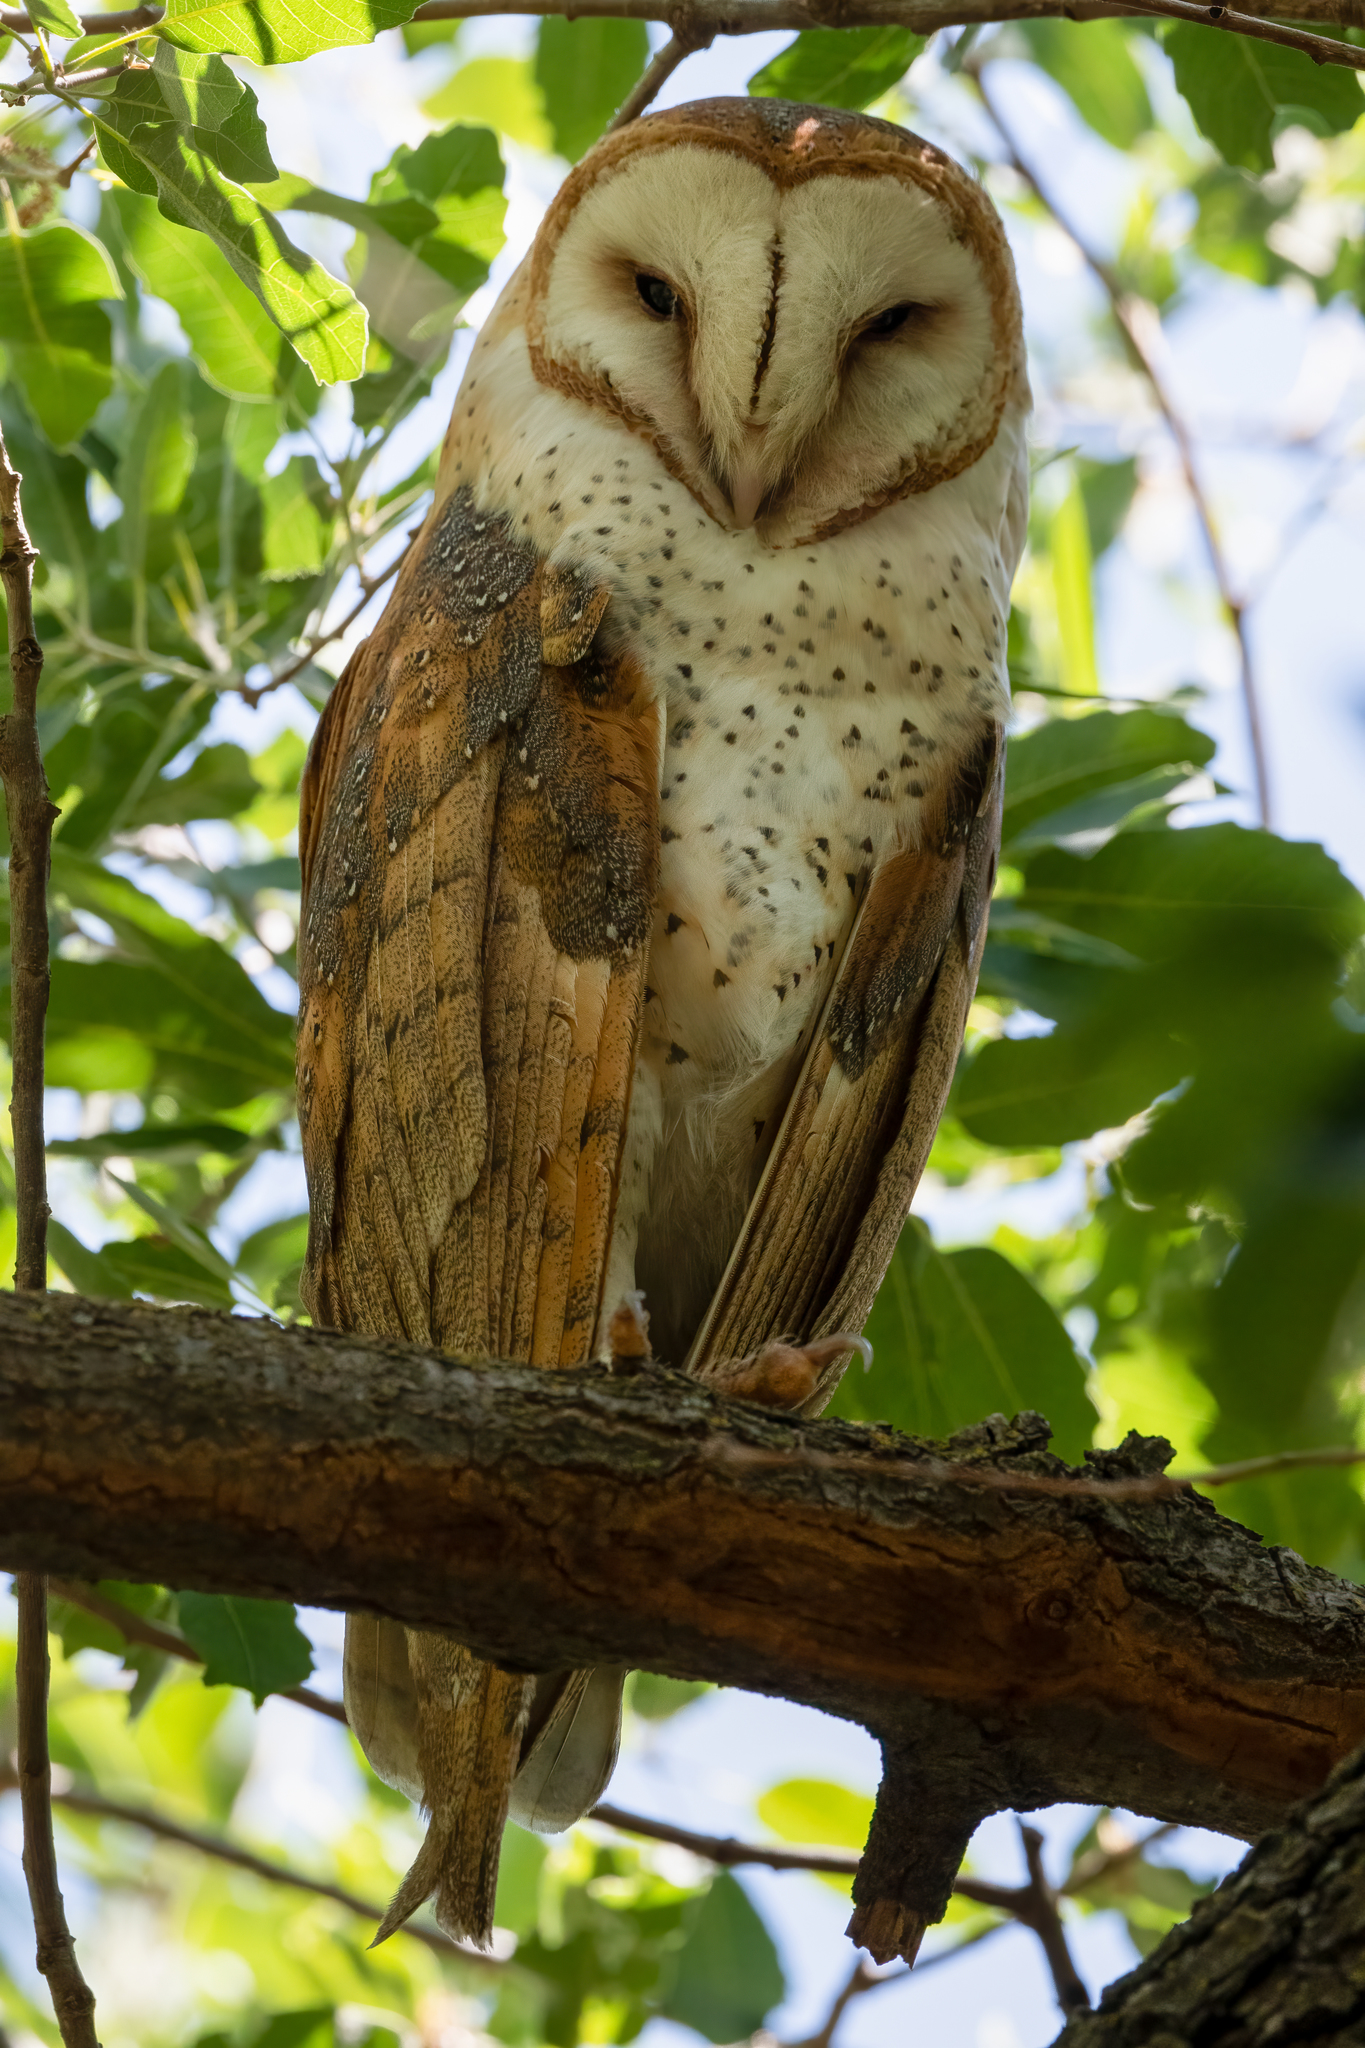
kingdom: Animalia
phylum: Chordata
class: Aves
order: Strigiformes
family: Tytonidae
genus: Tyto
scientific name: Tyto alba
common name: Barn owl
